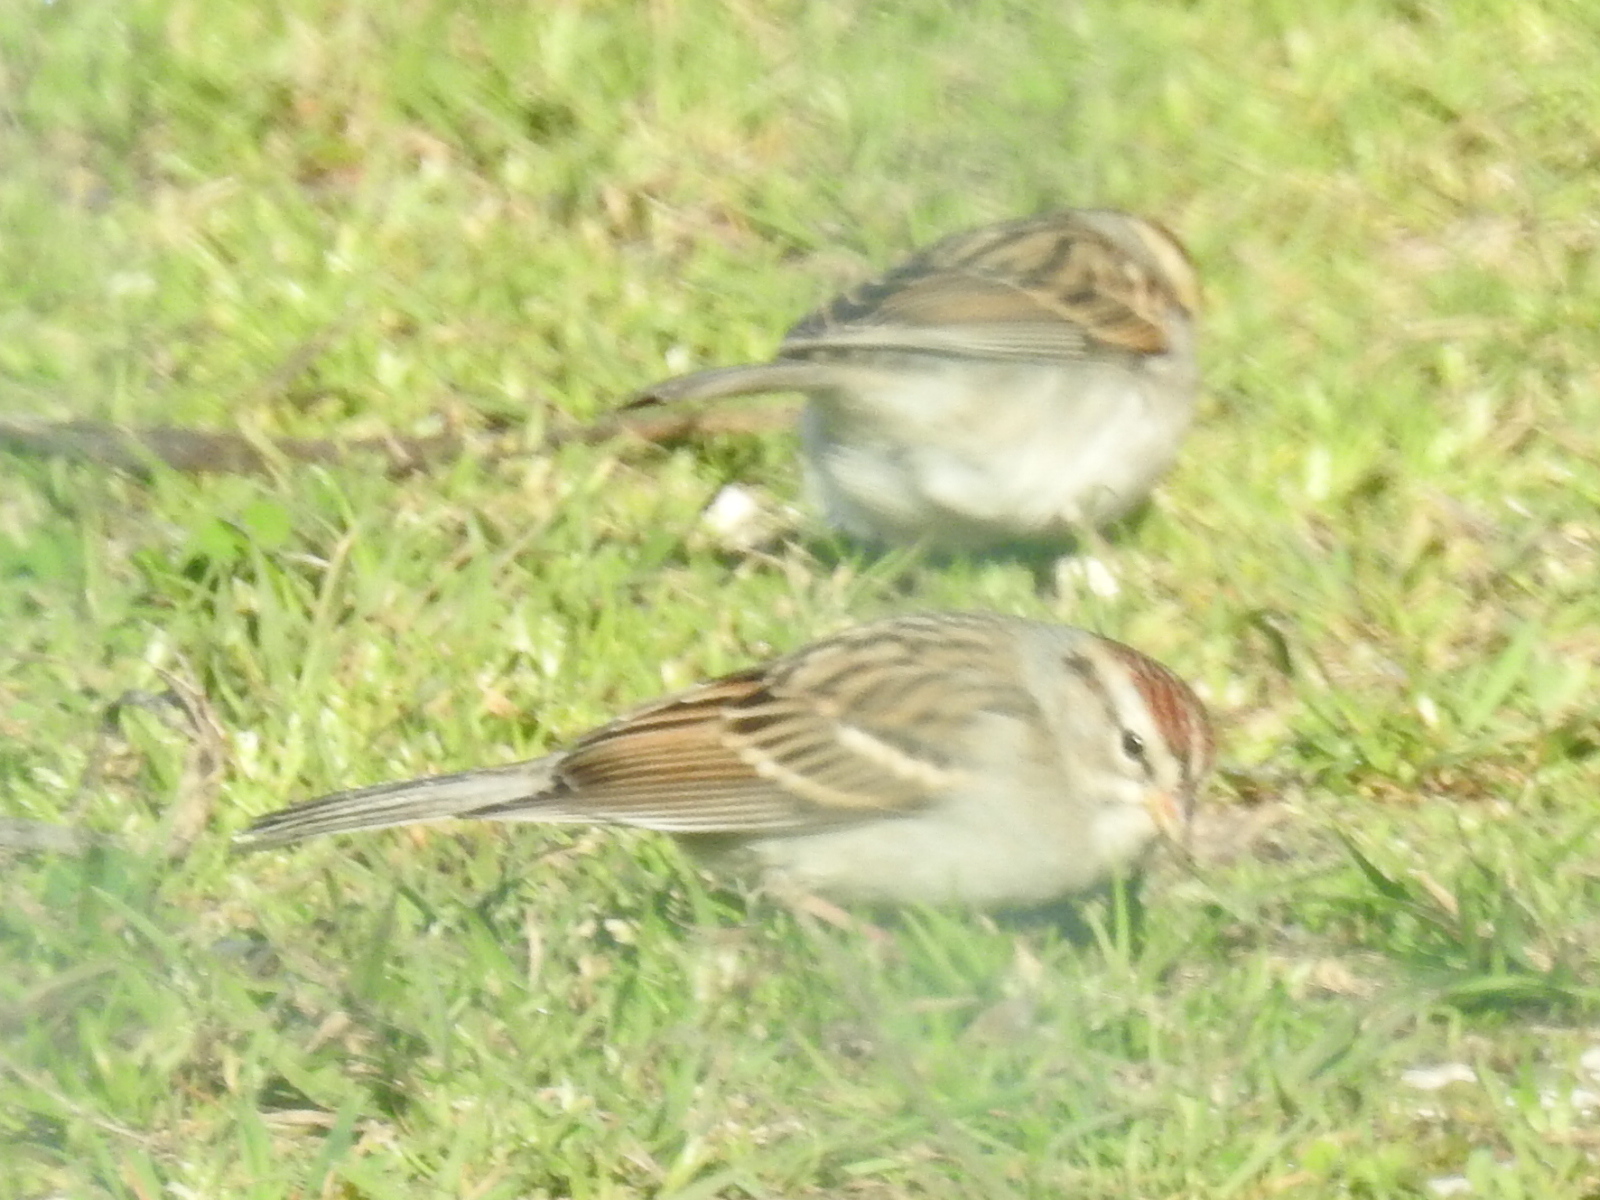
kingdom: Animalia
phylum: Chordata
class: Aves
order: Passeriformes
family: Passerellidae
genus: Spizella
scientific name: Spizella passerina
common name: Chipping sparrow
